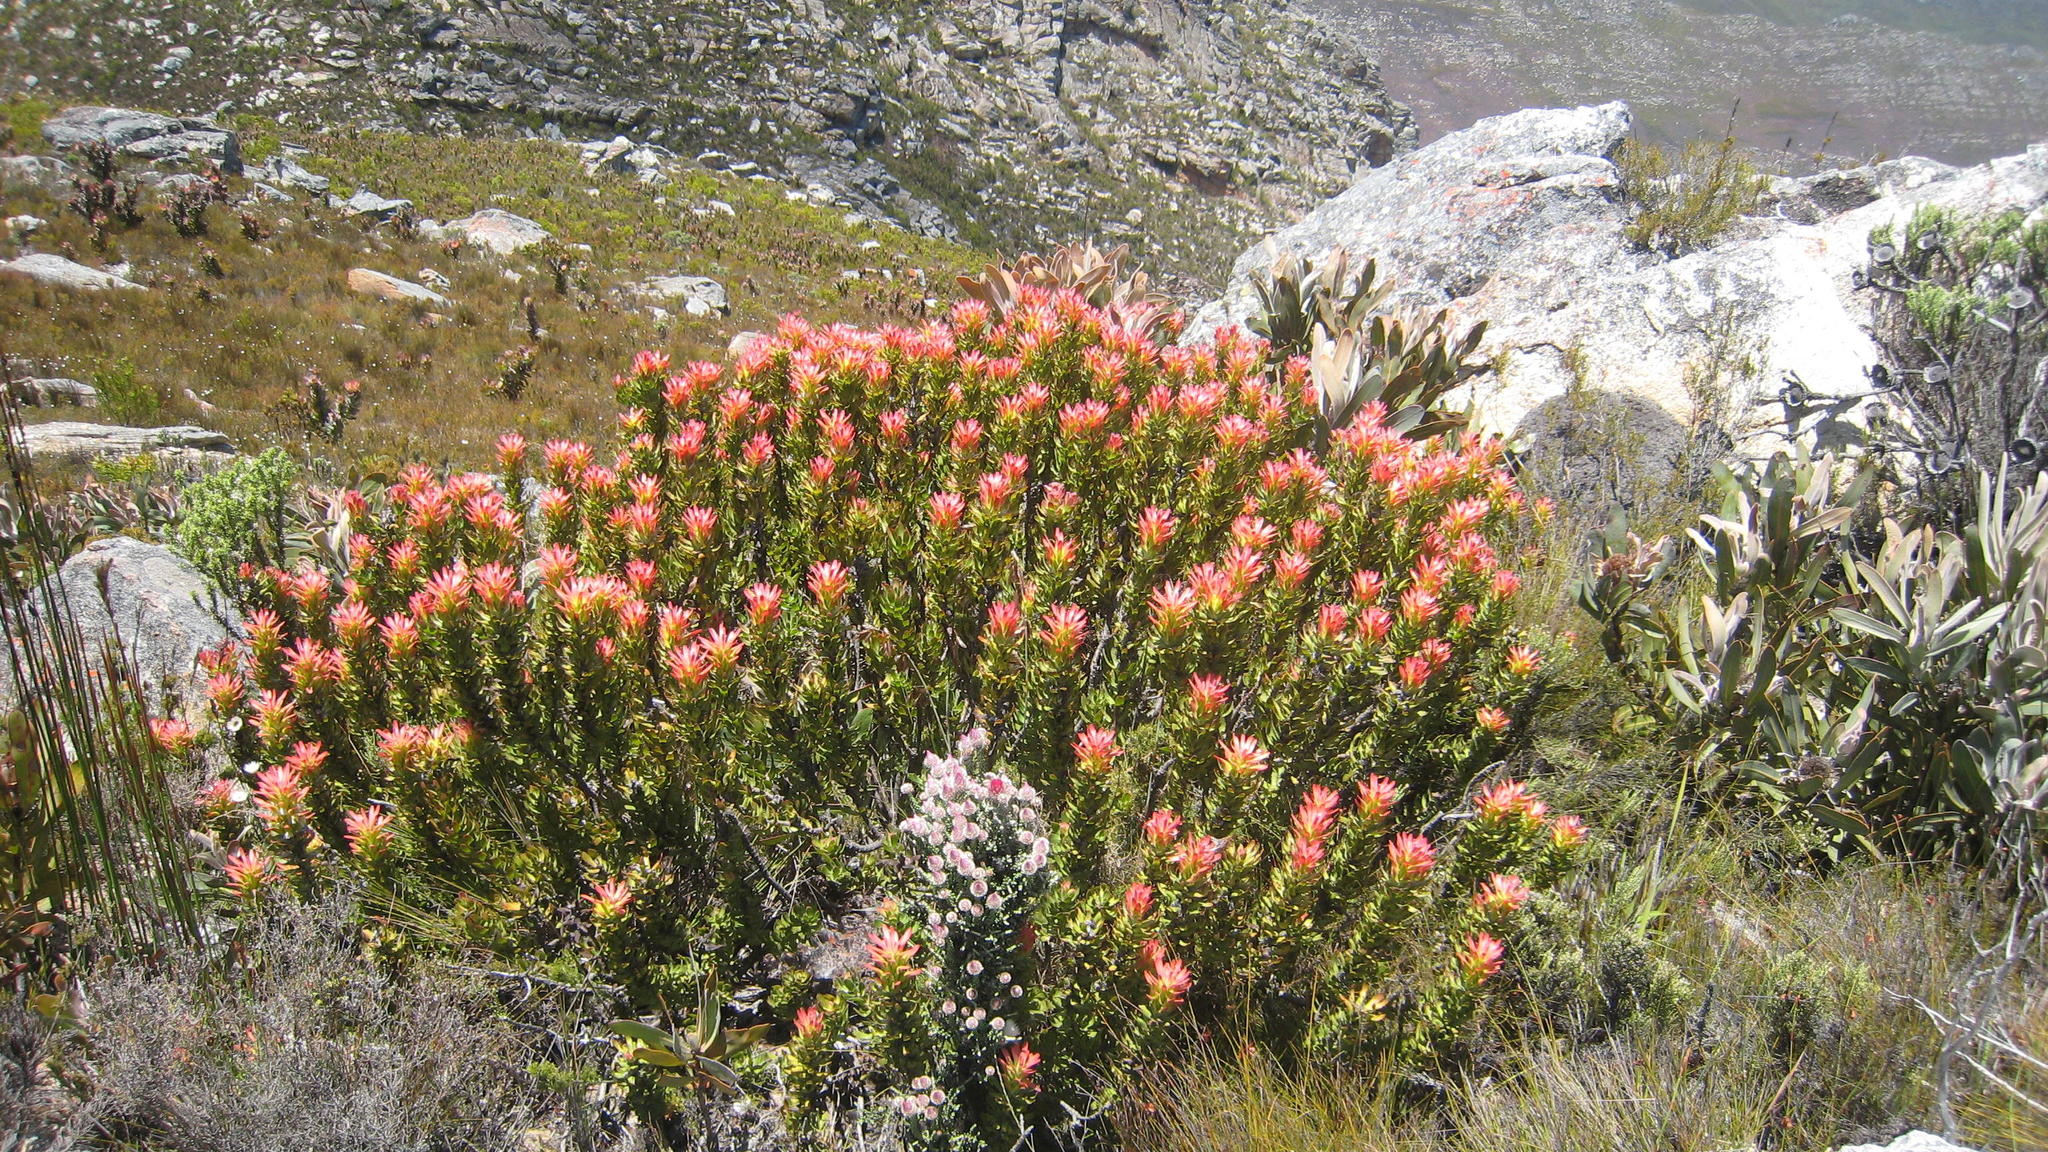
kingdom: Plantae
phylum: Tracheophyta
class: Magnoliopsida
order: Proteales
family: Proteaceae
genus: Mimetes
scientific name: Mimetes cucullatus
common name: Common pagoda
